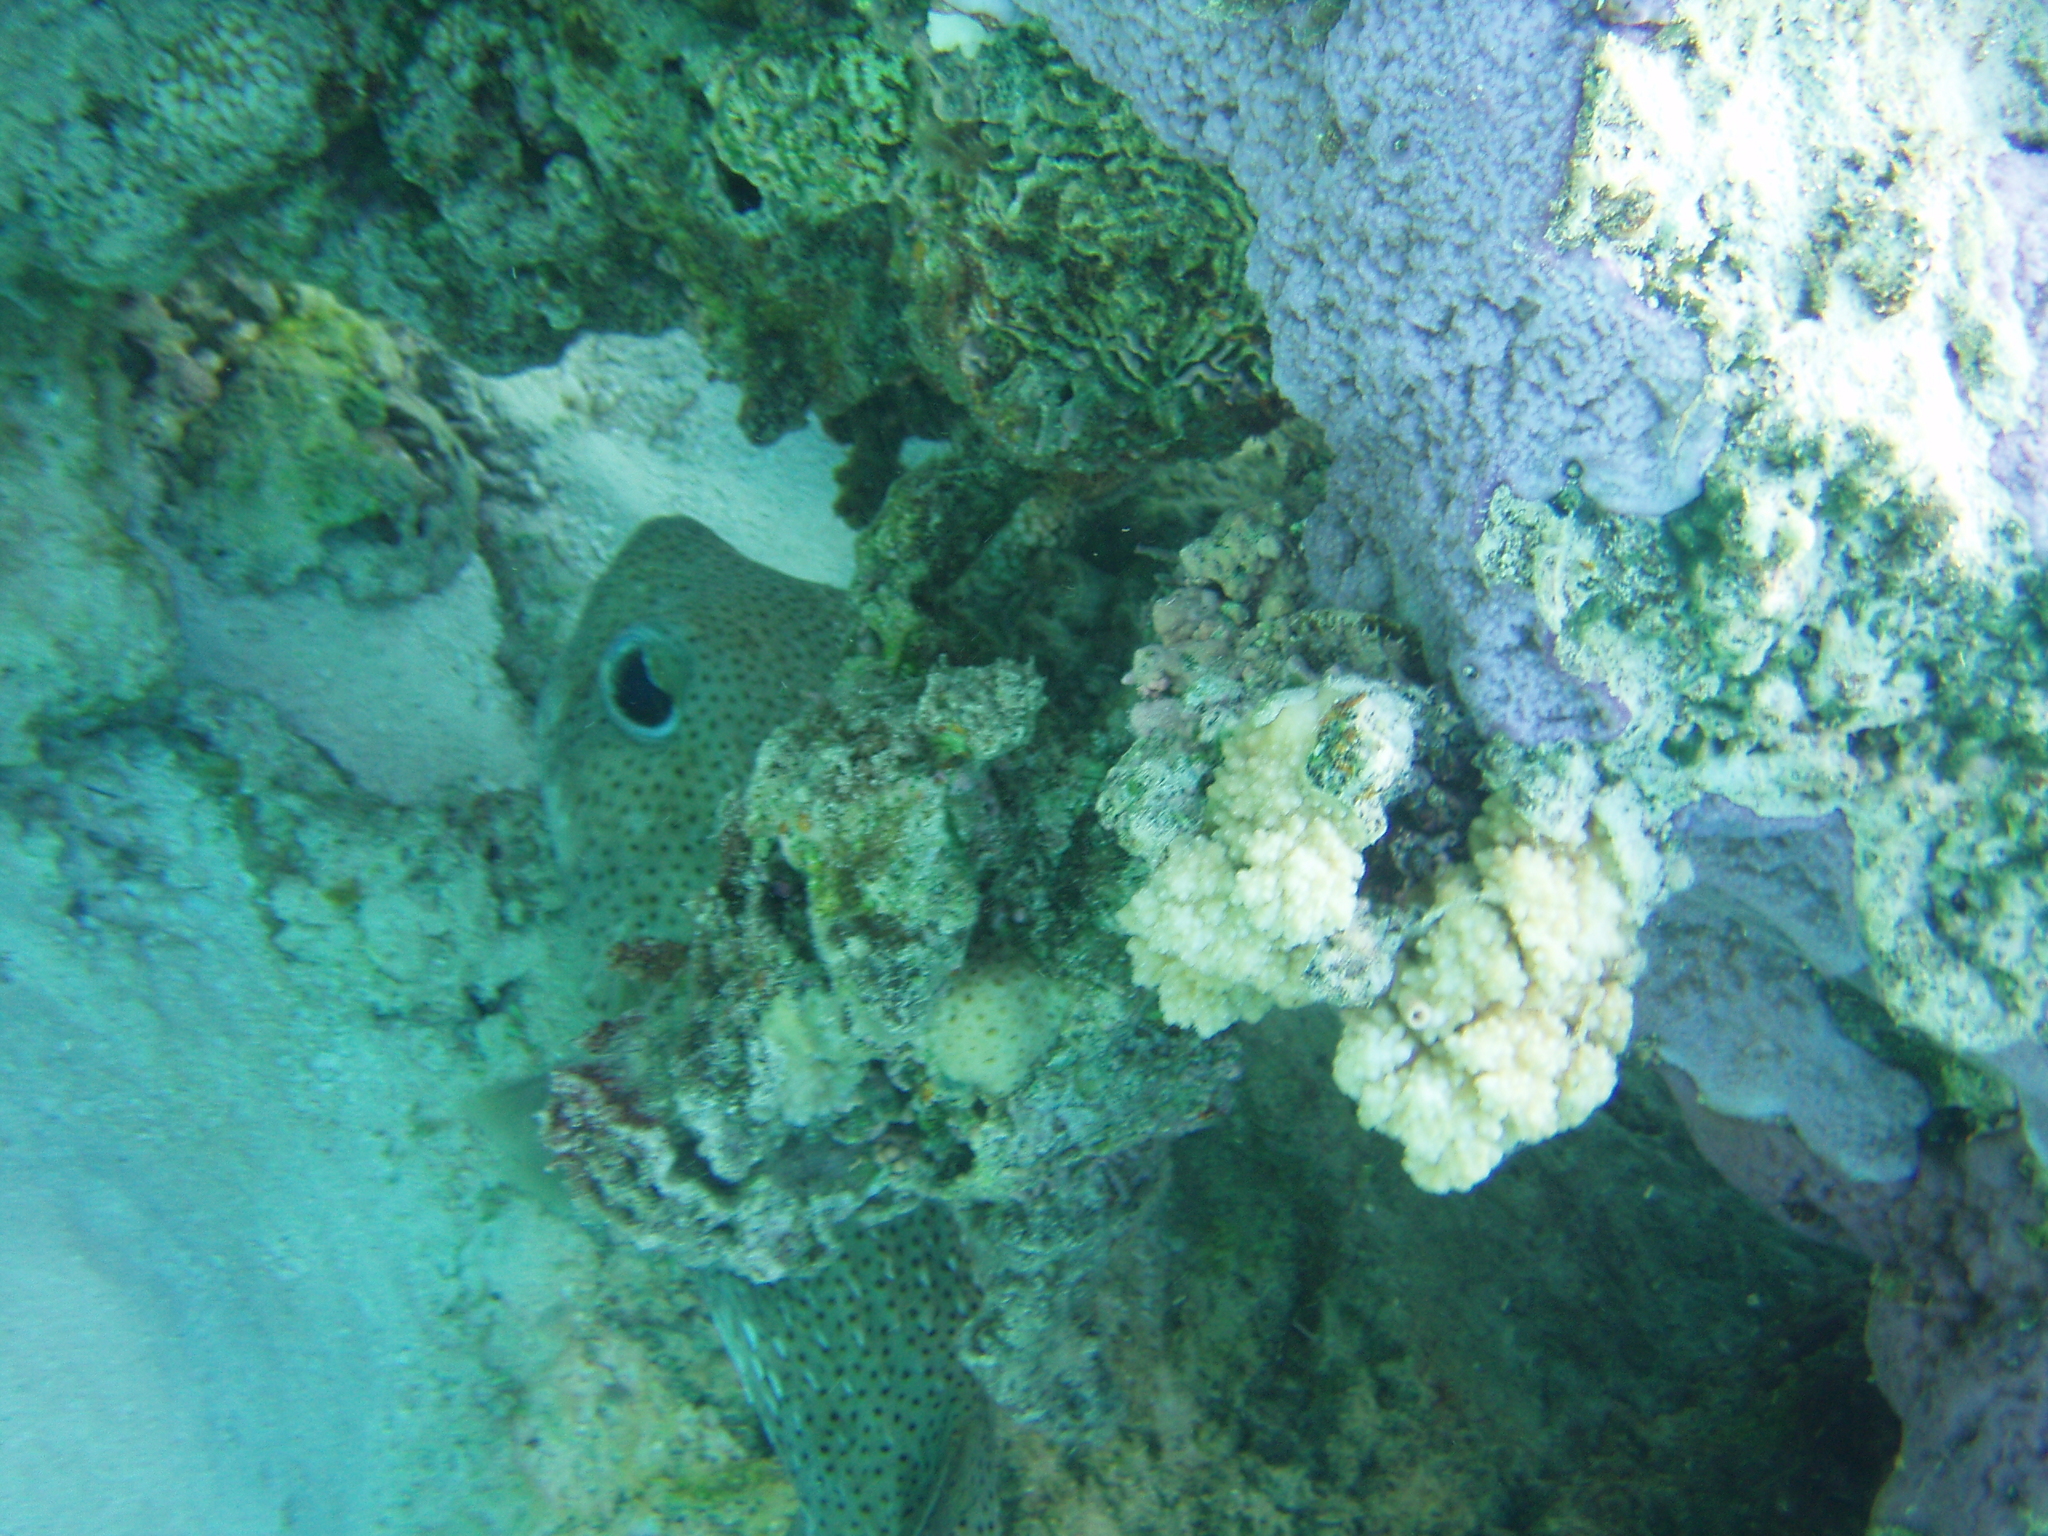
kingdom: Animalia
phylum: Chordata
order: Tetraodontiformes
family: Diodontidae
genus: Diodon
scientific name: Diodon hystrix
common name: Giant porcupinefish
